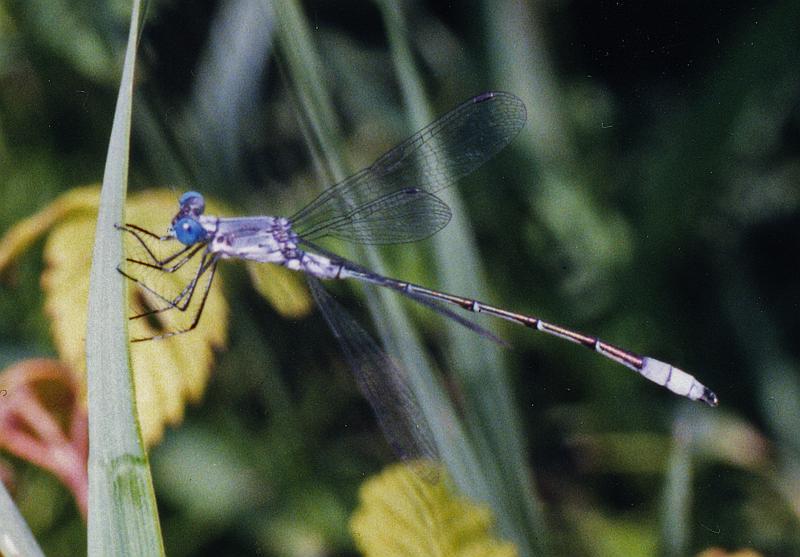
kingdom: Animalia
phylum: Arthropoda
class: Insecta
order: Odonata
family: Lestidae
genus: Lestes
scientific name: Lestes congener
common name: Spotted spreadwing
